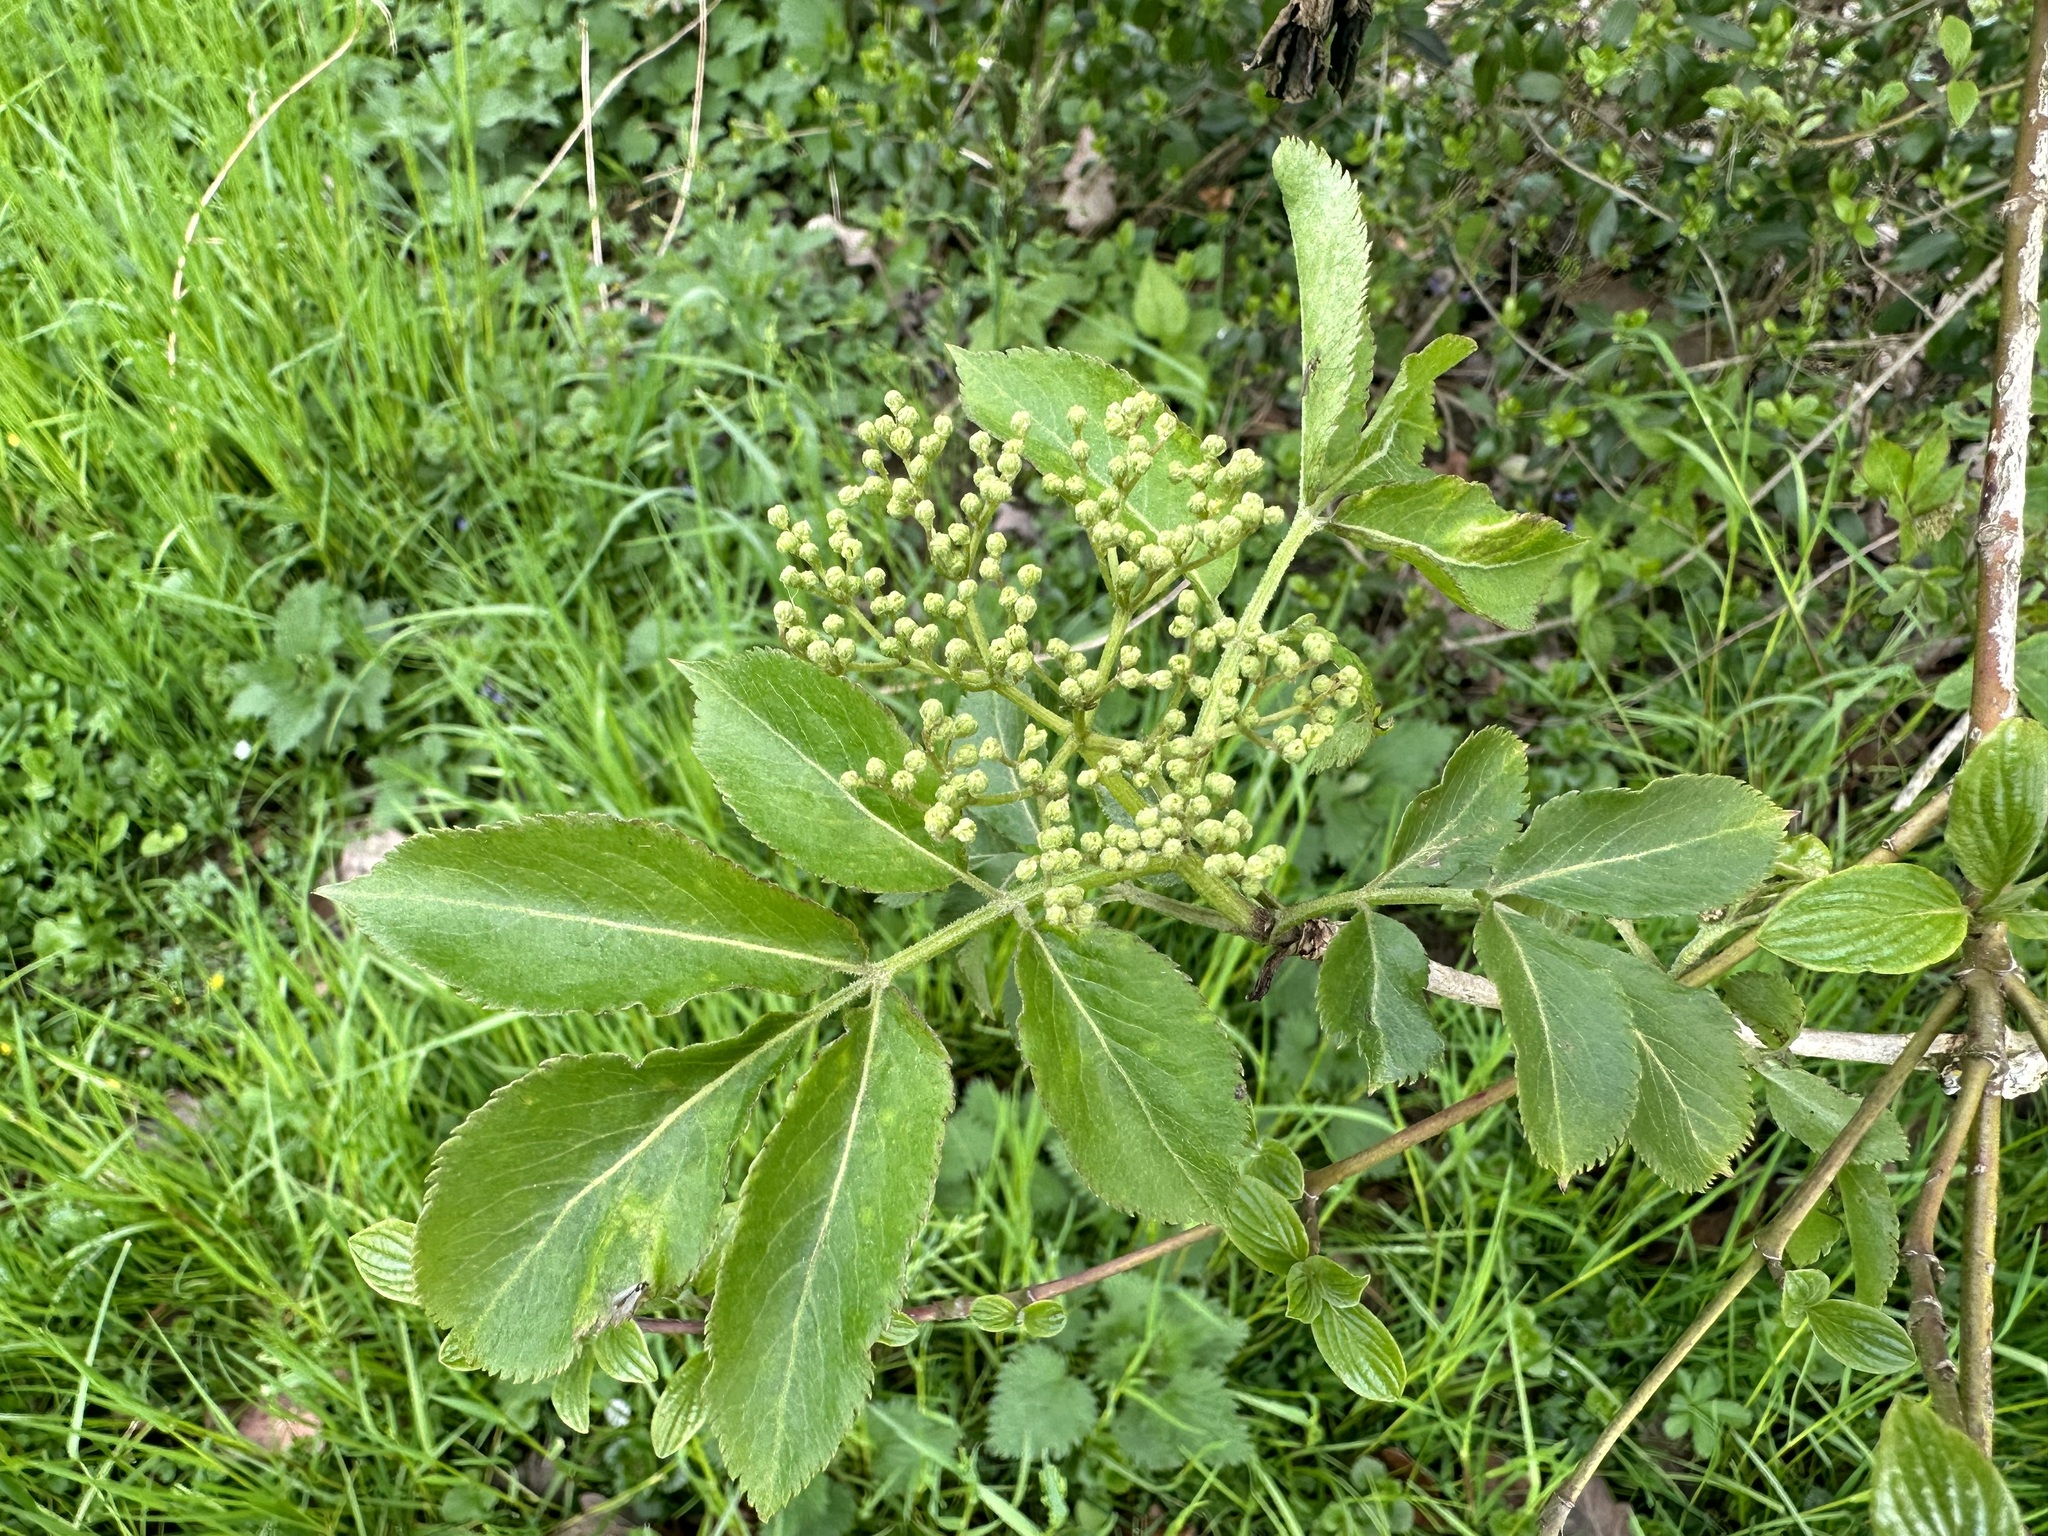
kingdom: Plantae
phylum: Tracheophyta
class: Magnoliopsida
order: Dipsacales
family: Viburnaceae
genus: Sambucus
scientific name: Sambucus nigra
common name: Elder
